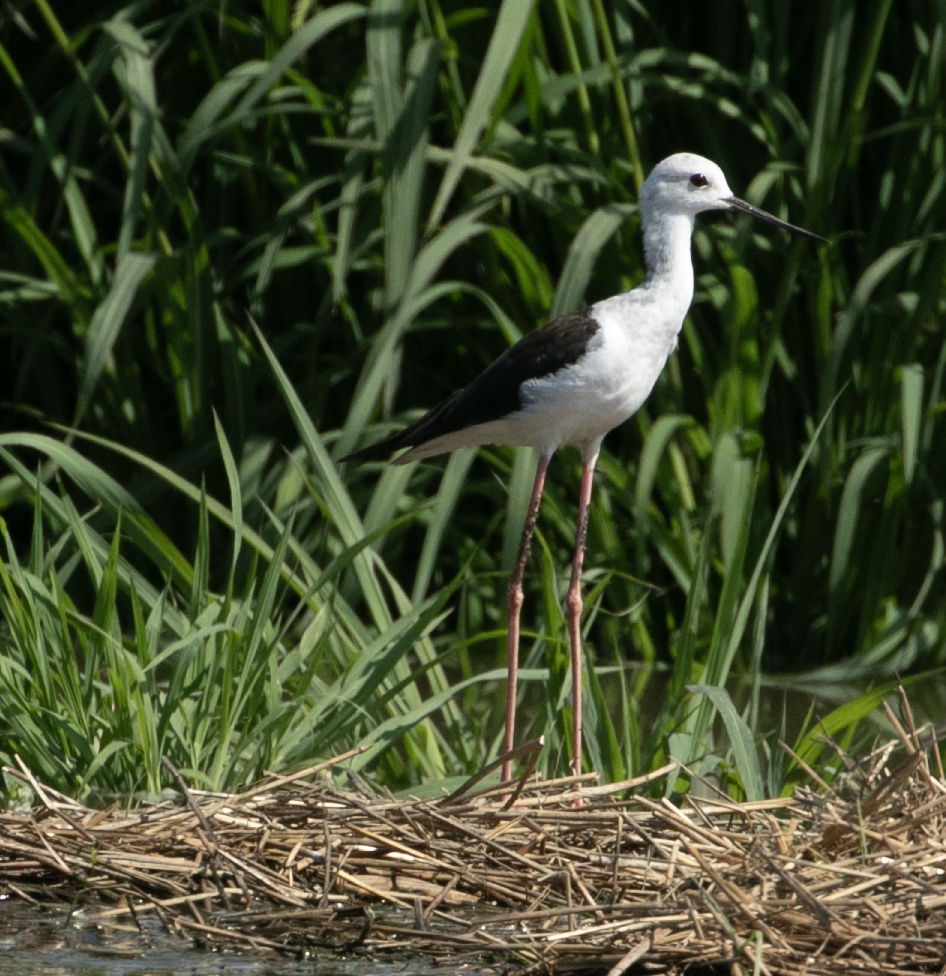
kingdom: Animalia
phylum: Chordata
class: Aves
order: Charadriiformes
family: Recurvirostridae
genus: Himantopus
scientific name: Himantopus himantopus
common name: Black-winged stilt
